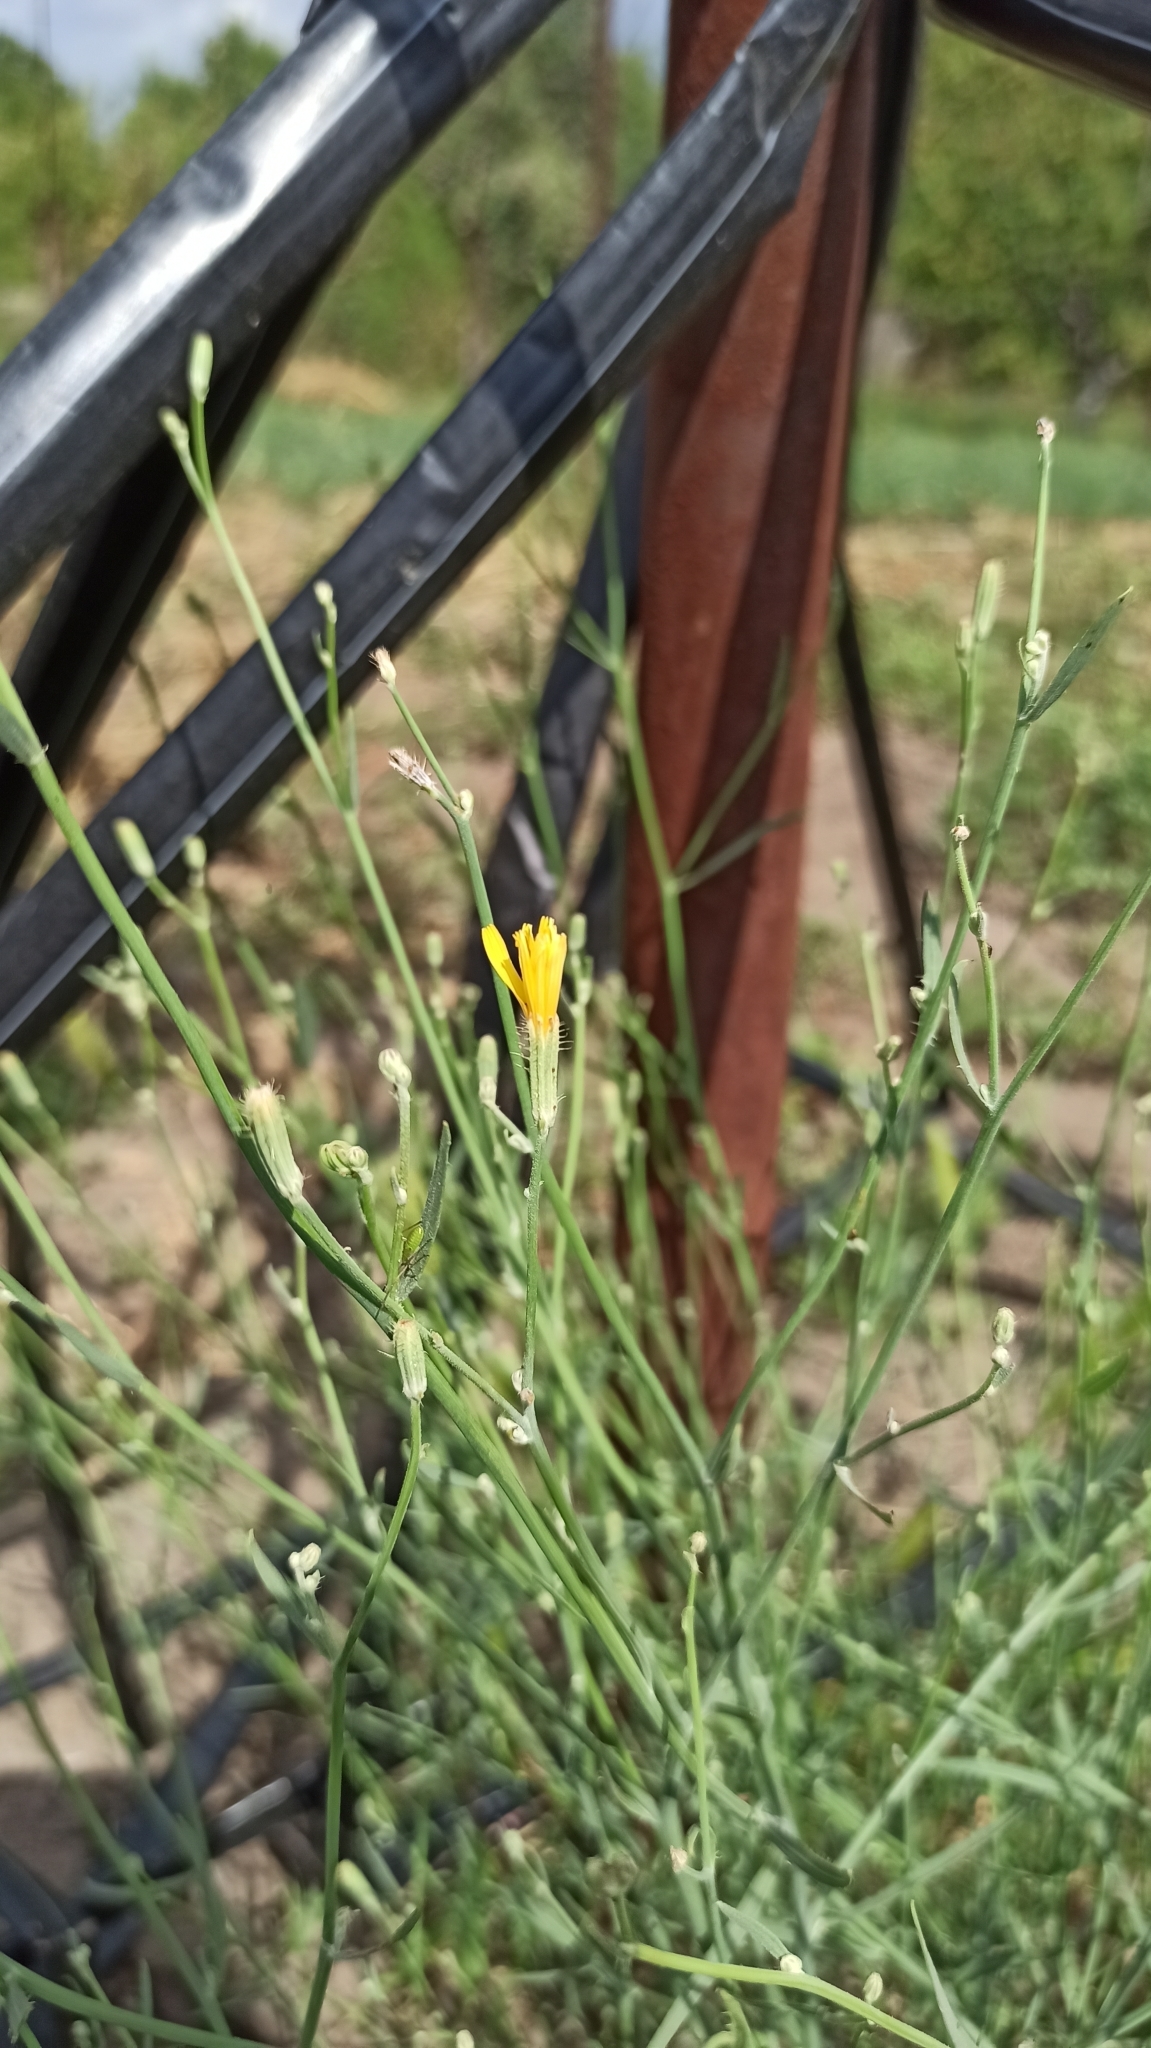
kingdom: Plantae
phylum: Tracheophyta
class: Magnoliopsida
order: Asterales
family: Asteraceae
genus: Chondrilla
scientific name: Chondrilla juncea
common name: Skeleton weed
